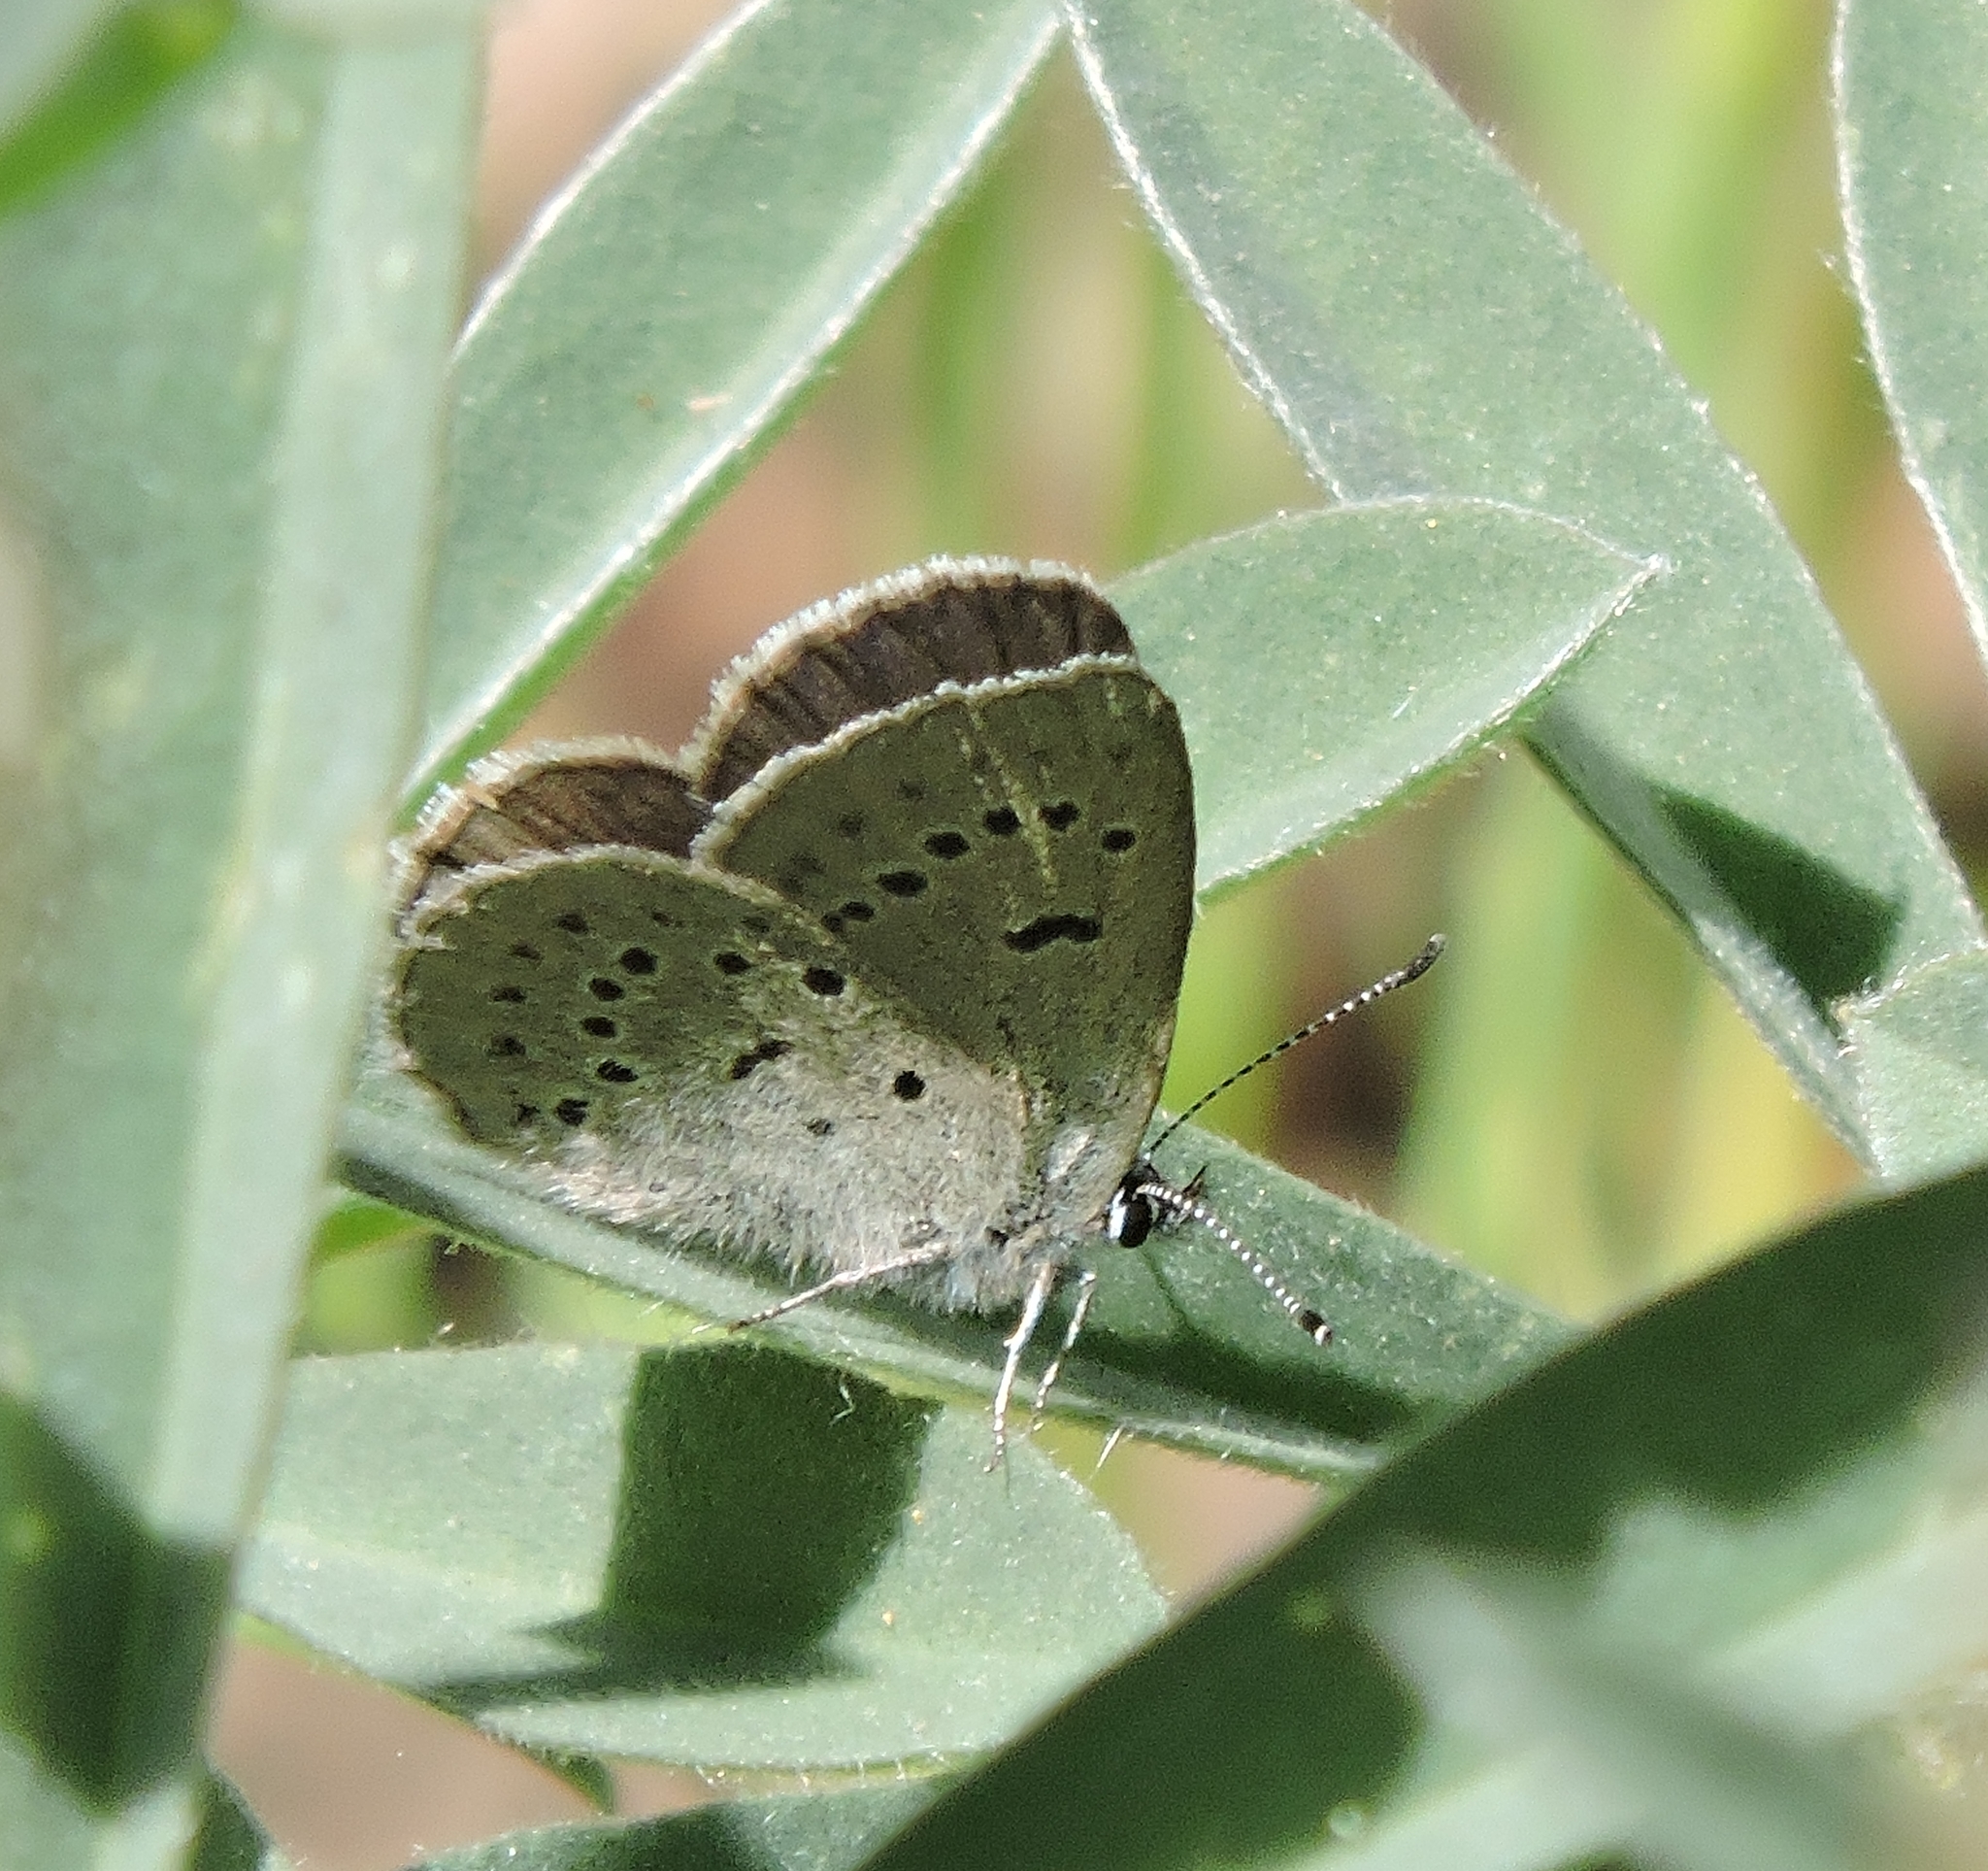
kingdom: Animalia
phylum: Arthropoda
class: Insecta
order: Lepidoptera
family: Lycaenidae
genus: Icaricia
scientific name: Icaricia icarioides
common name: Boisduval's blue
